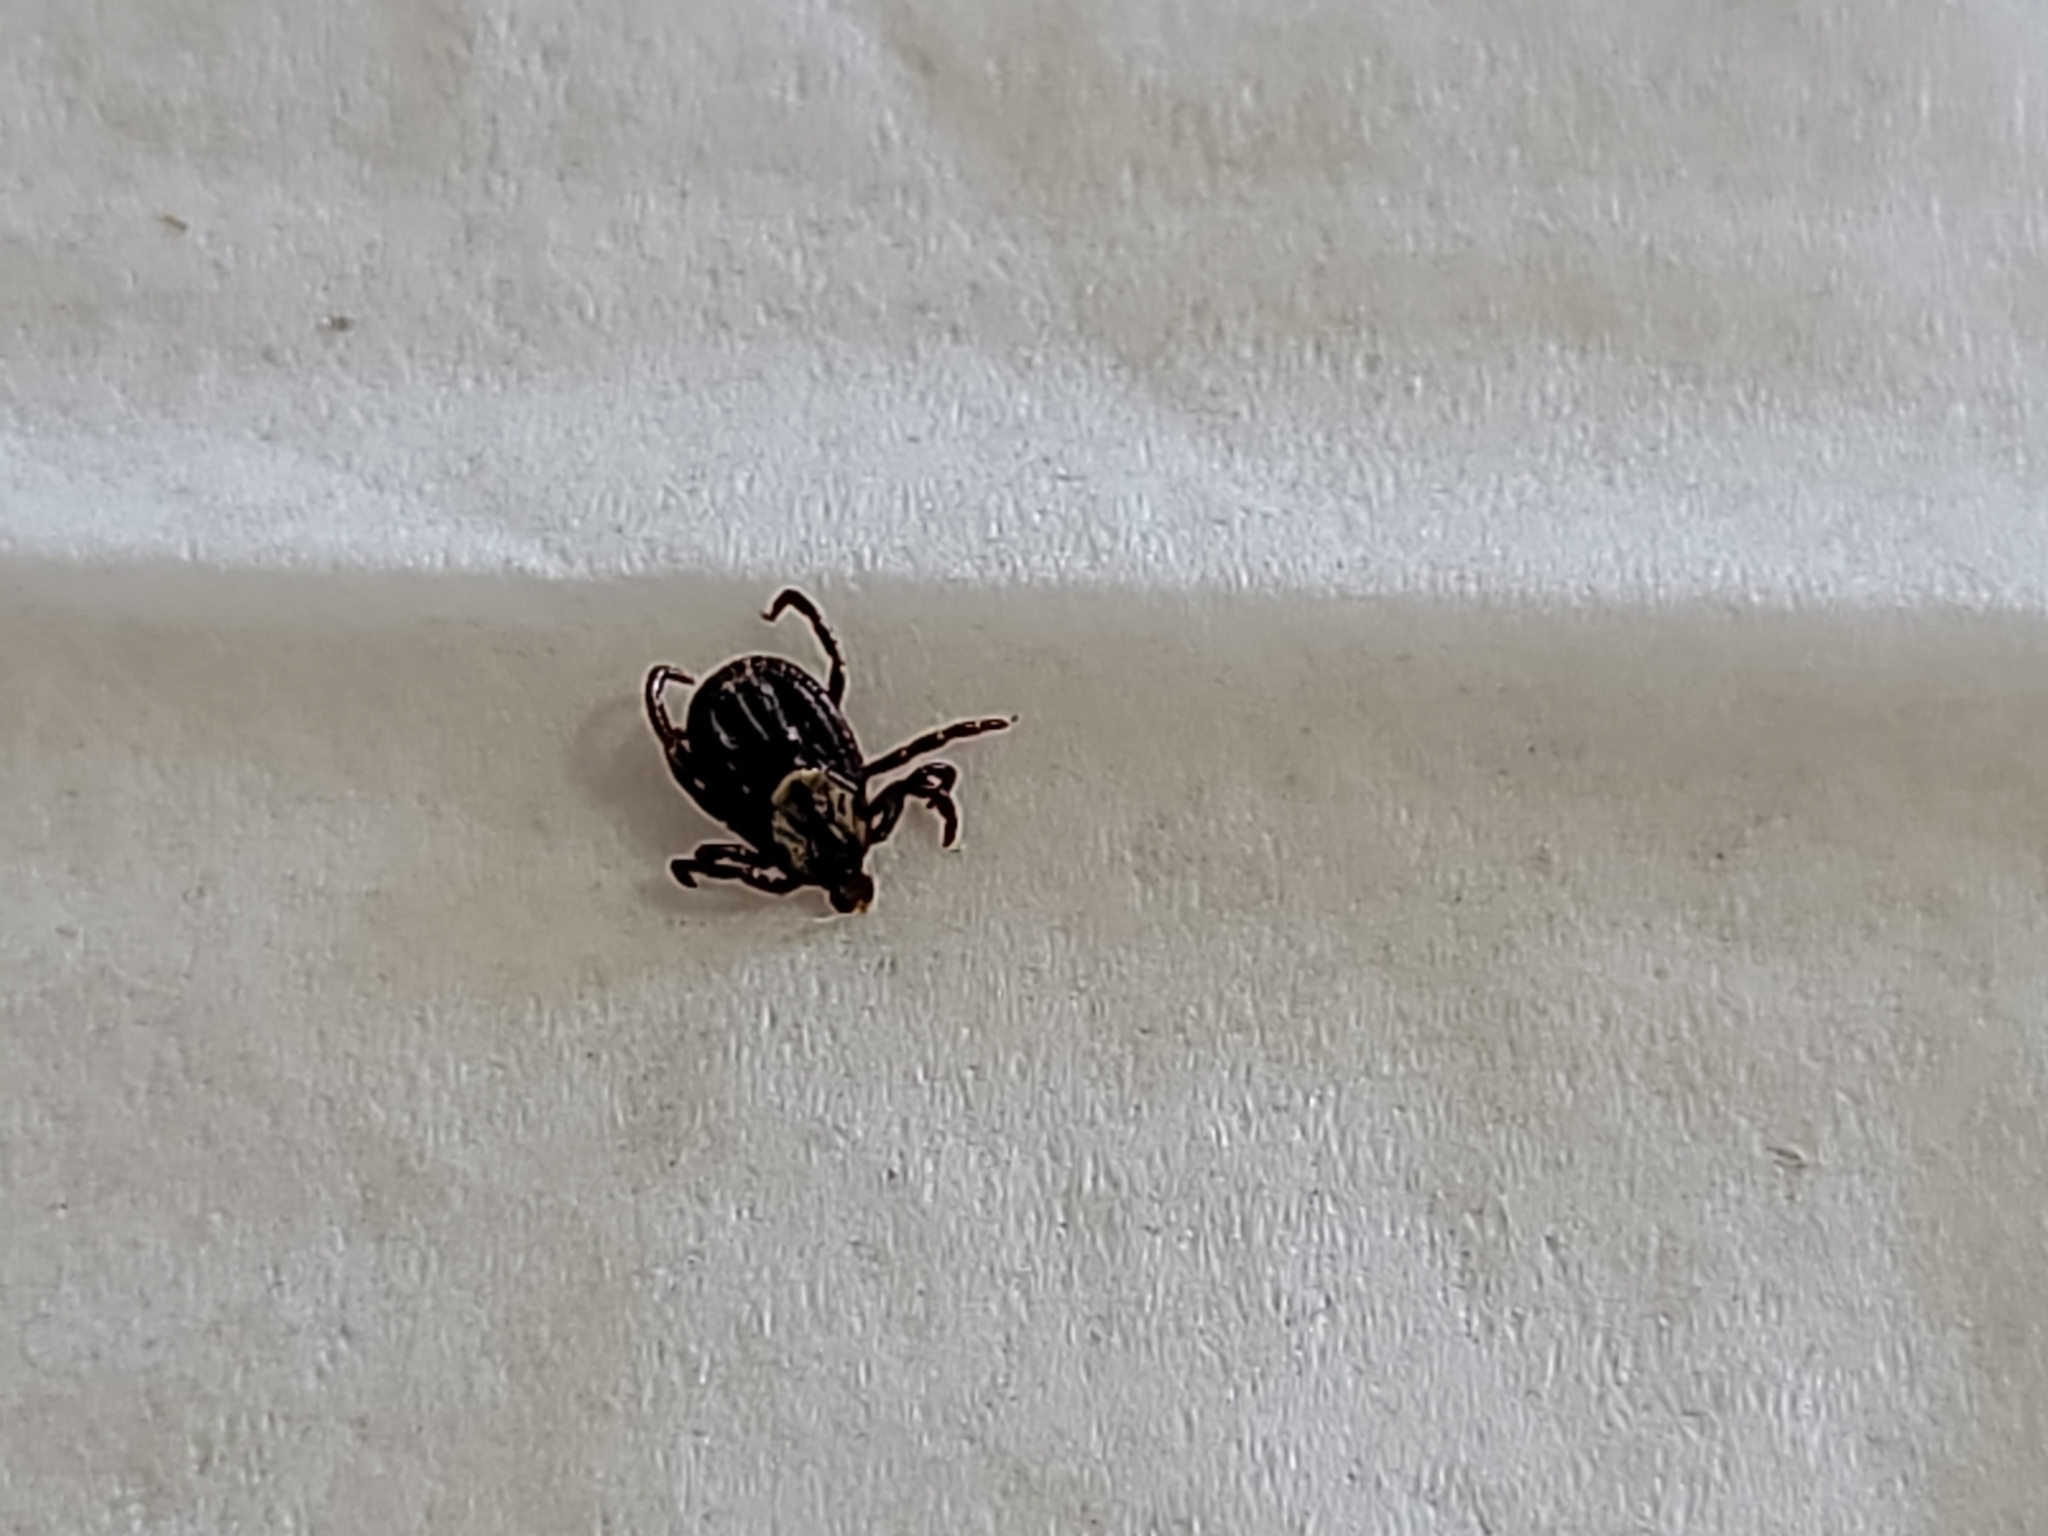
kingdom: Animalia
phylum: Arthropoda
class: Arachnida
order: Ixodida
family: Ixodidae
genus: Dermacentor
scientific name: Dermacentor variabilis
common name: American dog tick
